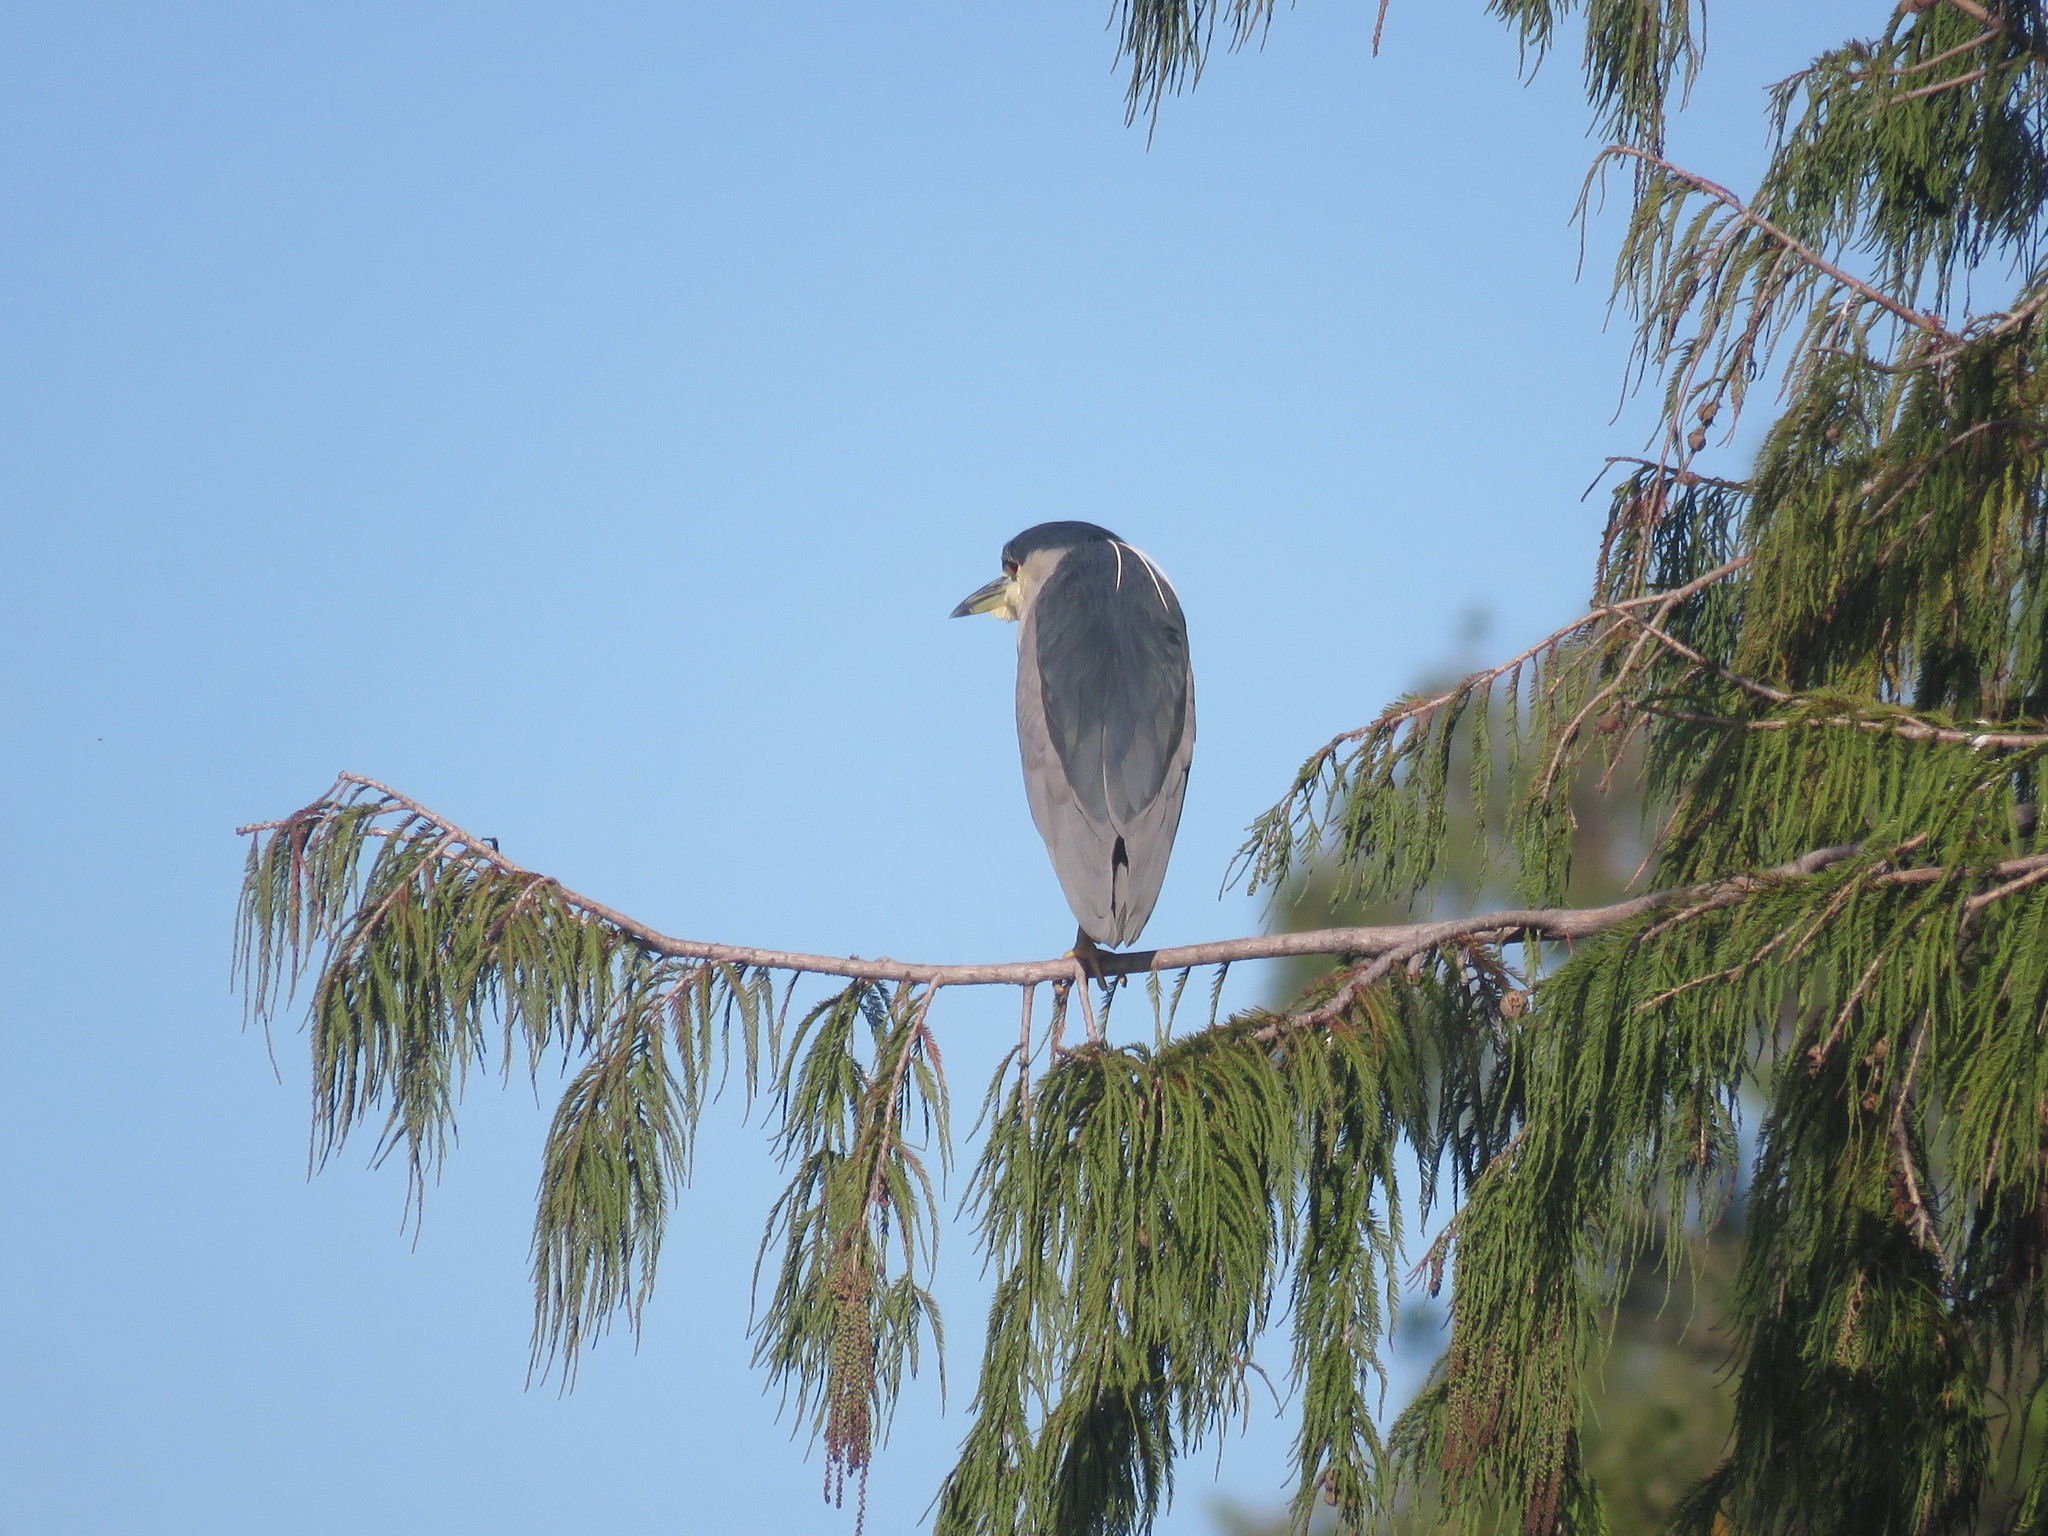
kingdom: Animalia
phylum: Chordata
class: Aves
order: Pelecaniformes
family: Ardeidae
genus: Nycticorax
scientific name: Nycticorax nycticorax
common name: Black-crowned night heron
